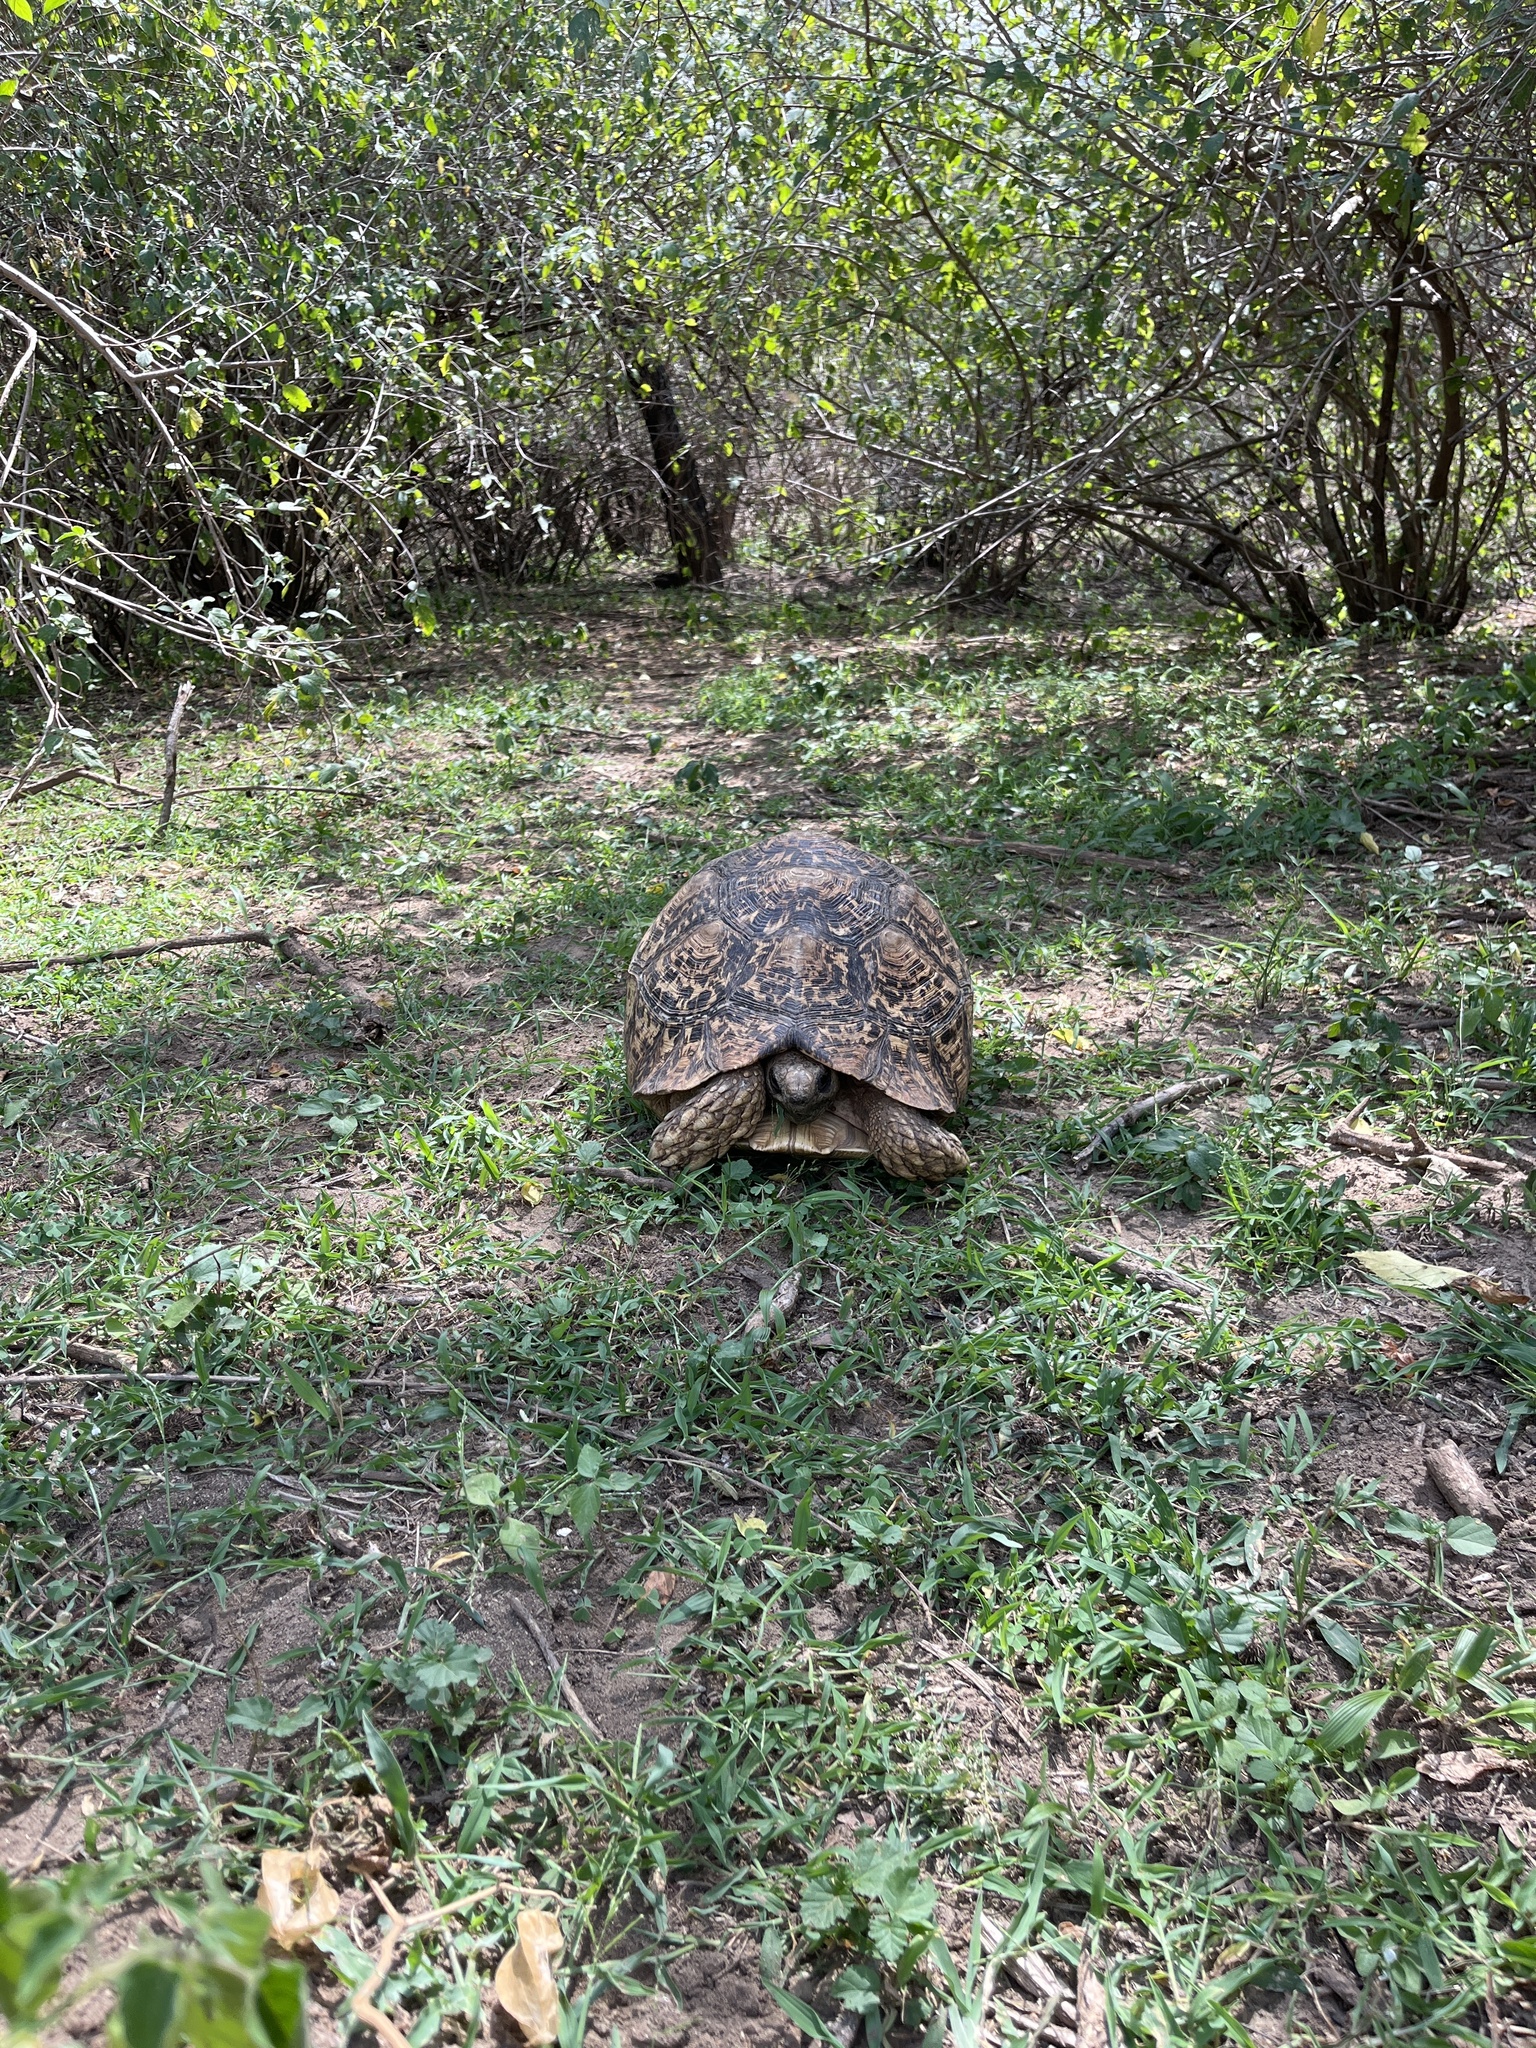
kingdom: Animalia
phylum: Chordata
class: Testudines
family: Testudinidae
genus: Stigmochelys
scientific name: Stigmochelys pardalis
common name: Leopard tortoise
